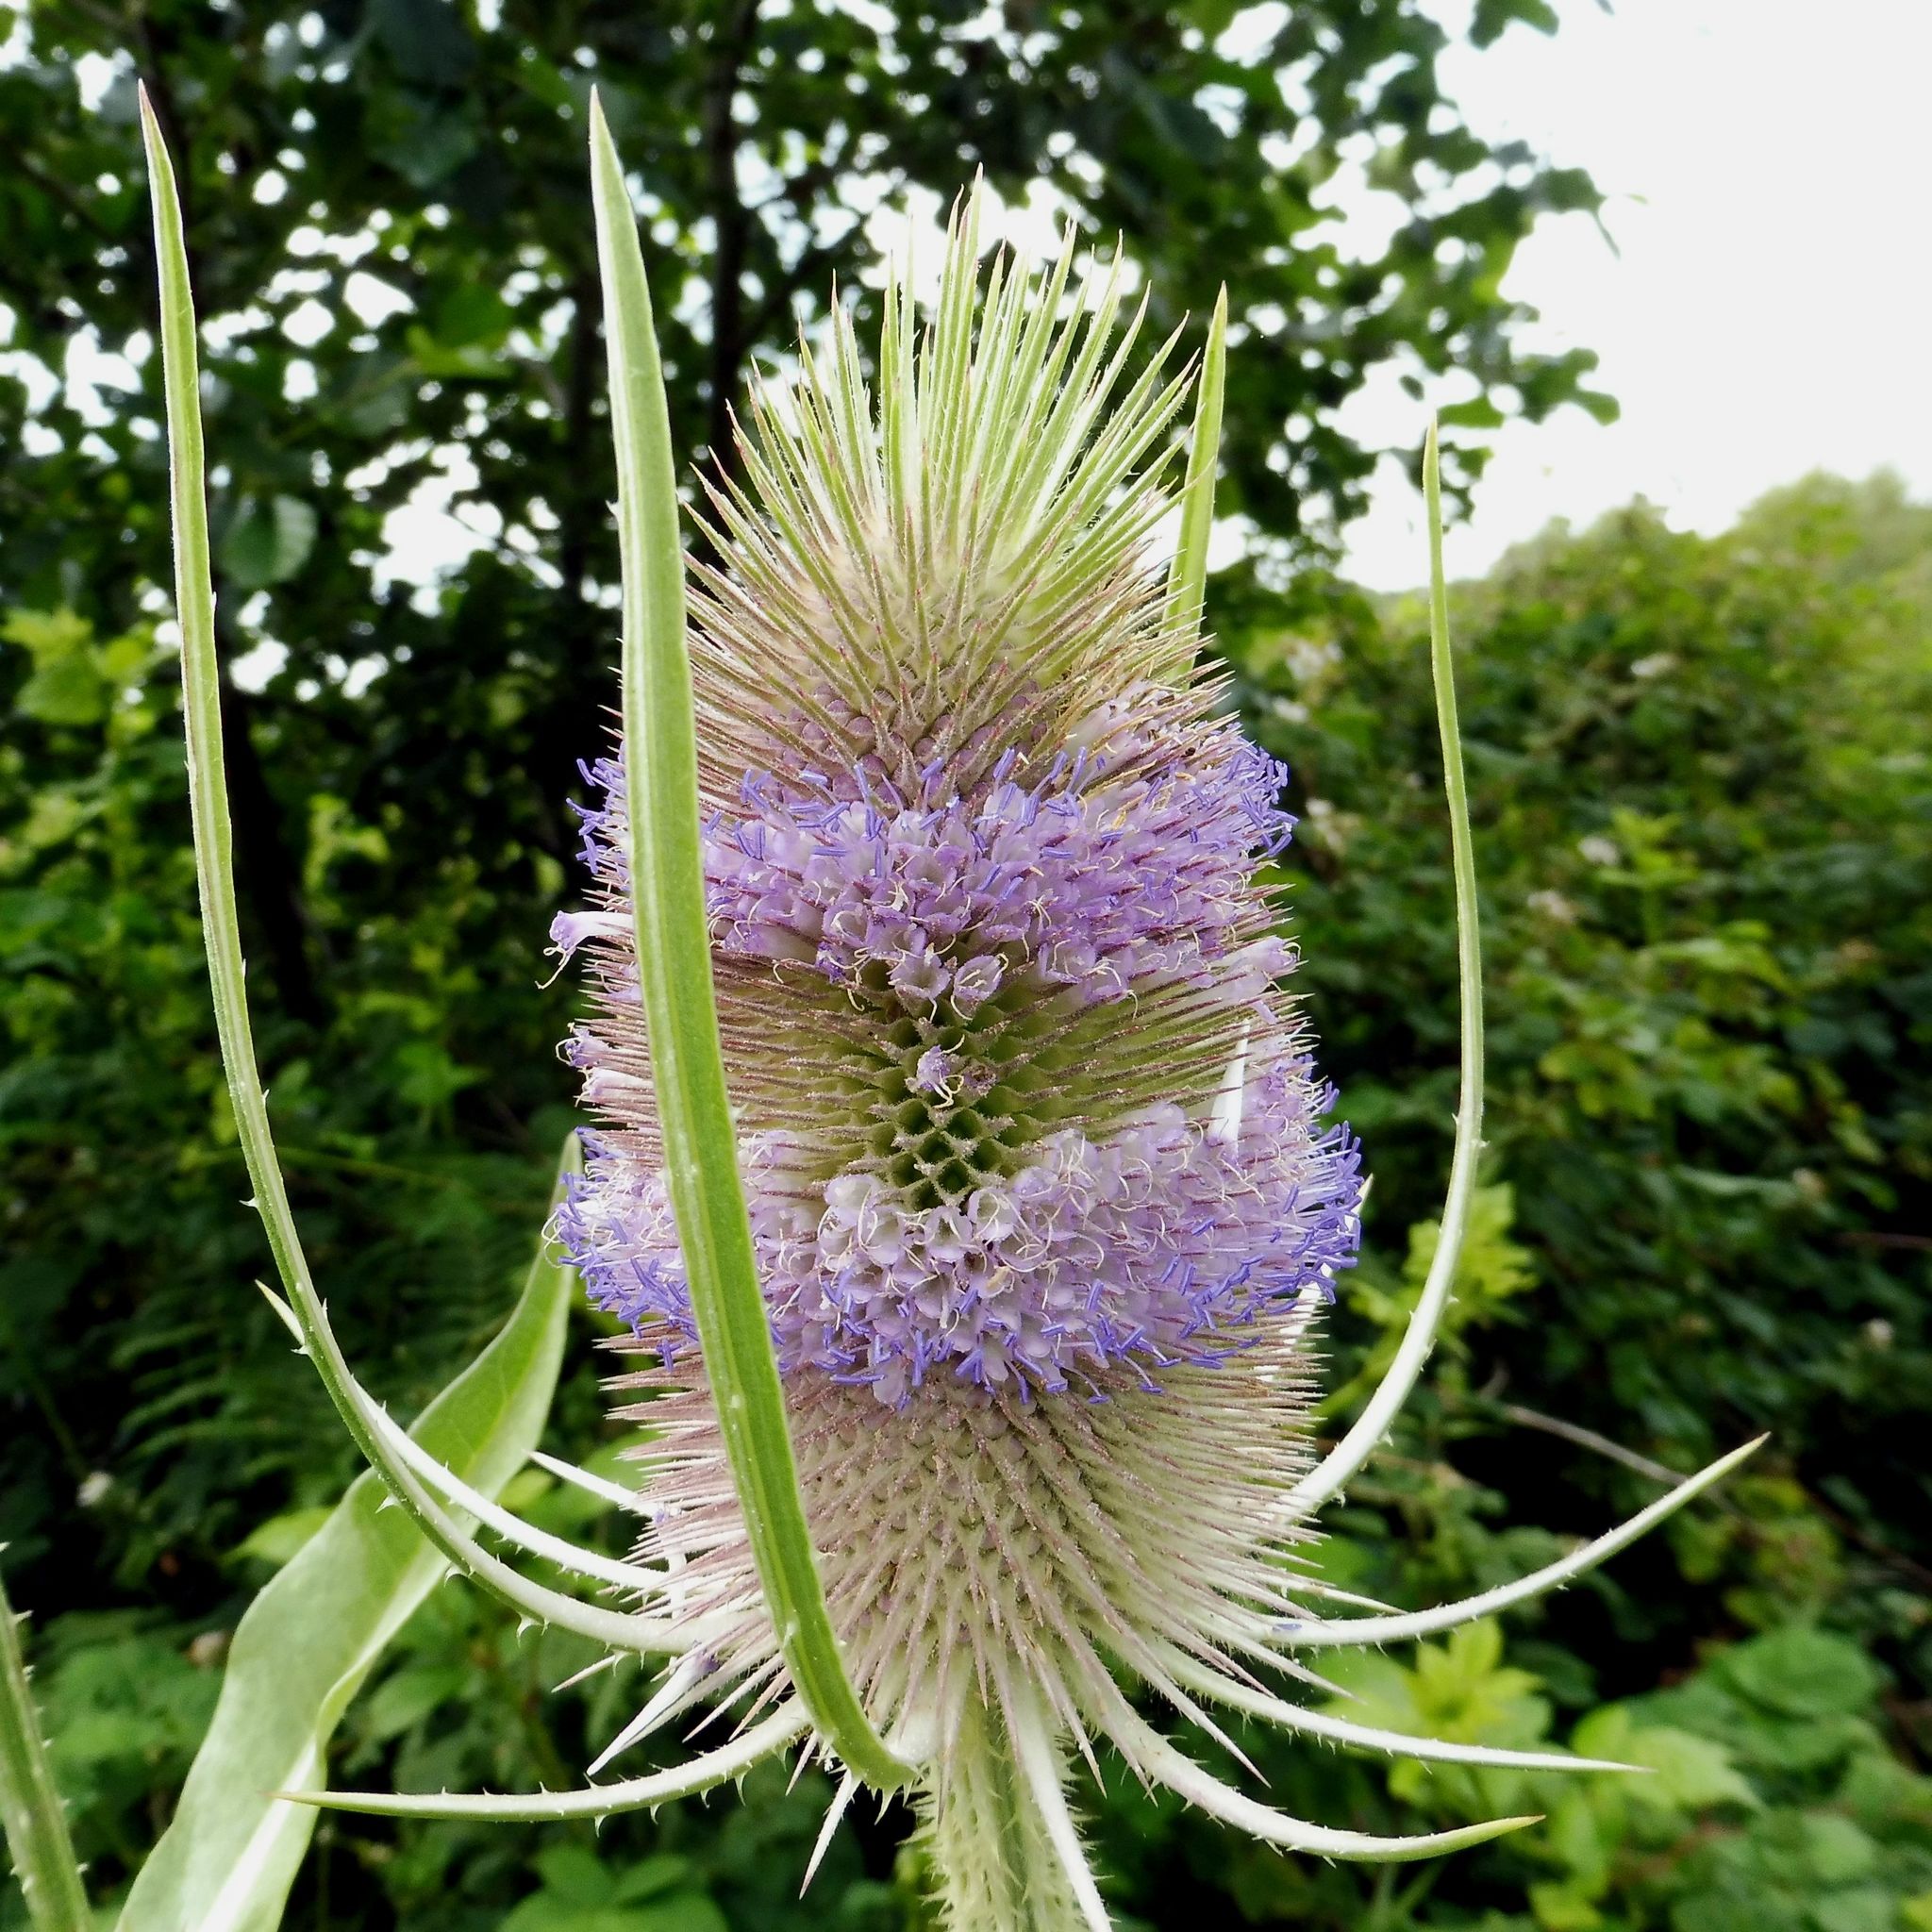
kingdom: Plantae
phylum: Tracheophyta
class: Magnoliopsida
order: Dipsacales
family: Caprifoliaceae
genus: Dipsacus
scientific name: Dipsacus fullonum
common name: Teasel
